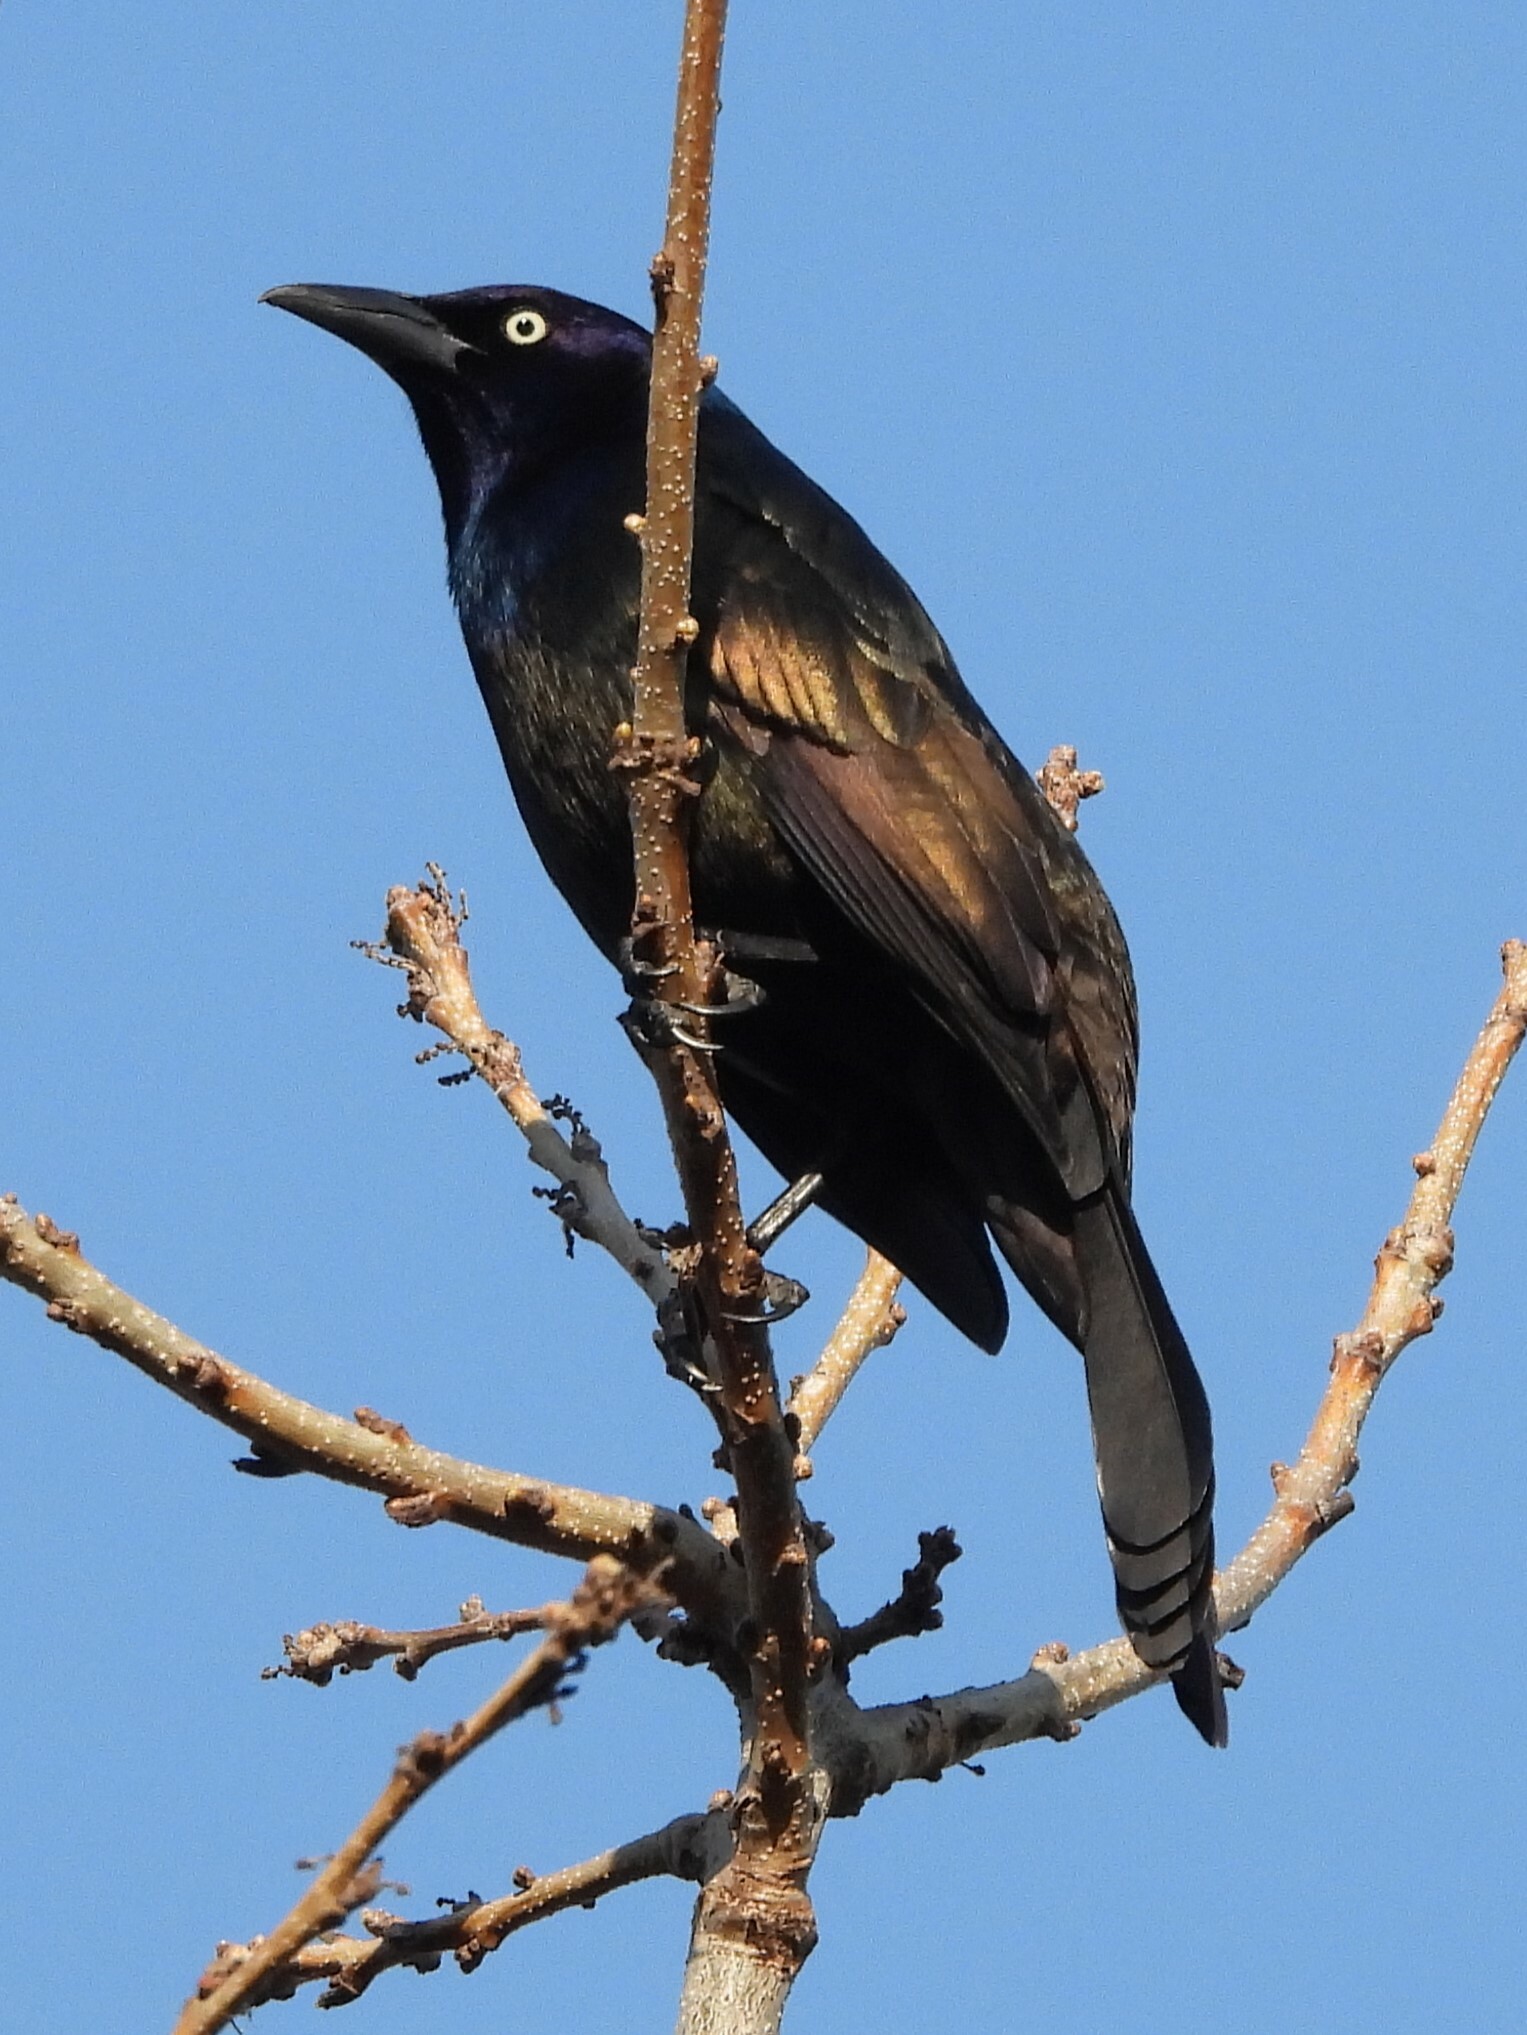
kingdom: Animalia
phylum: Chordata
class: Aves
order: Passeriformes
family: Icteridae
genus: Quiscalus
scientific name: Quiscalus quiscula
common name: Common grackle
